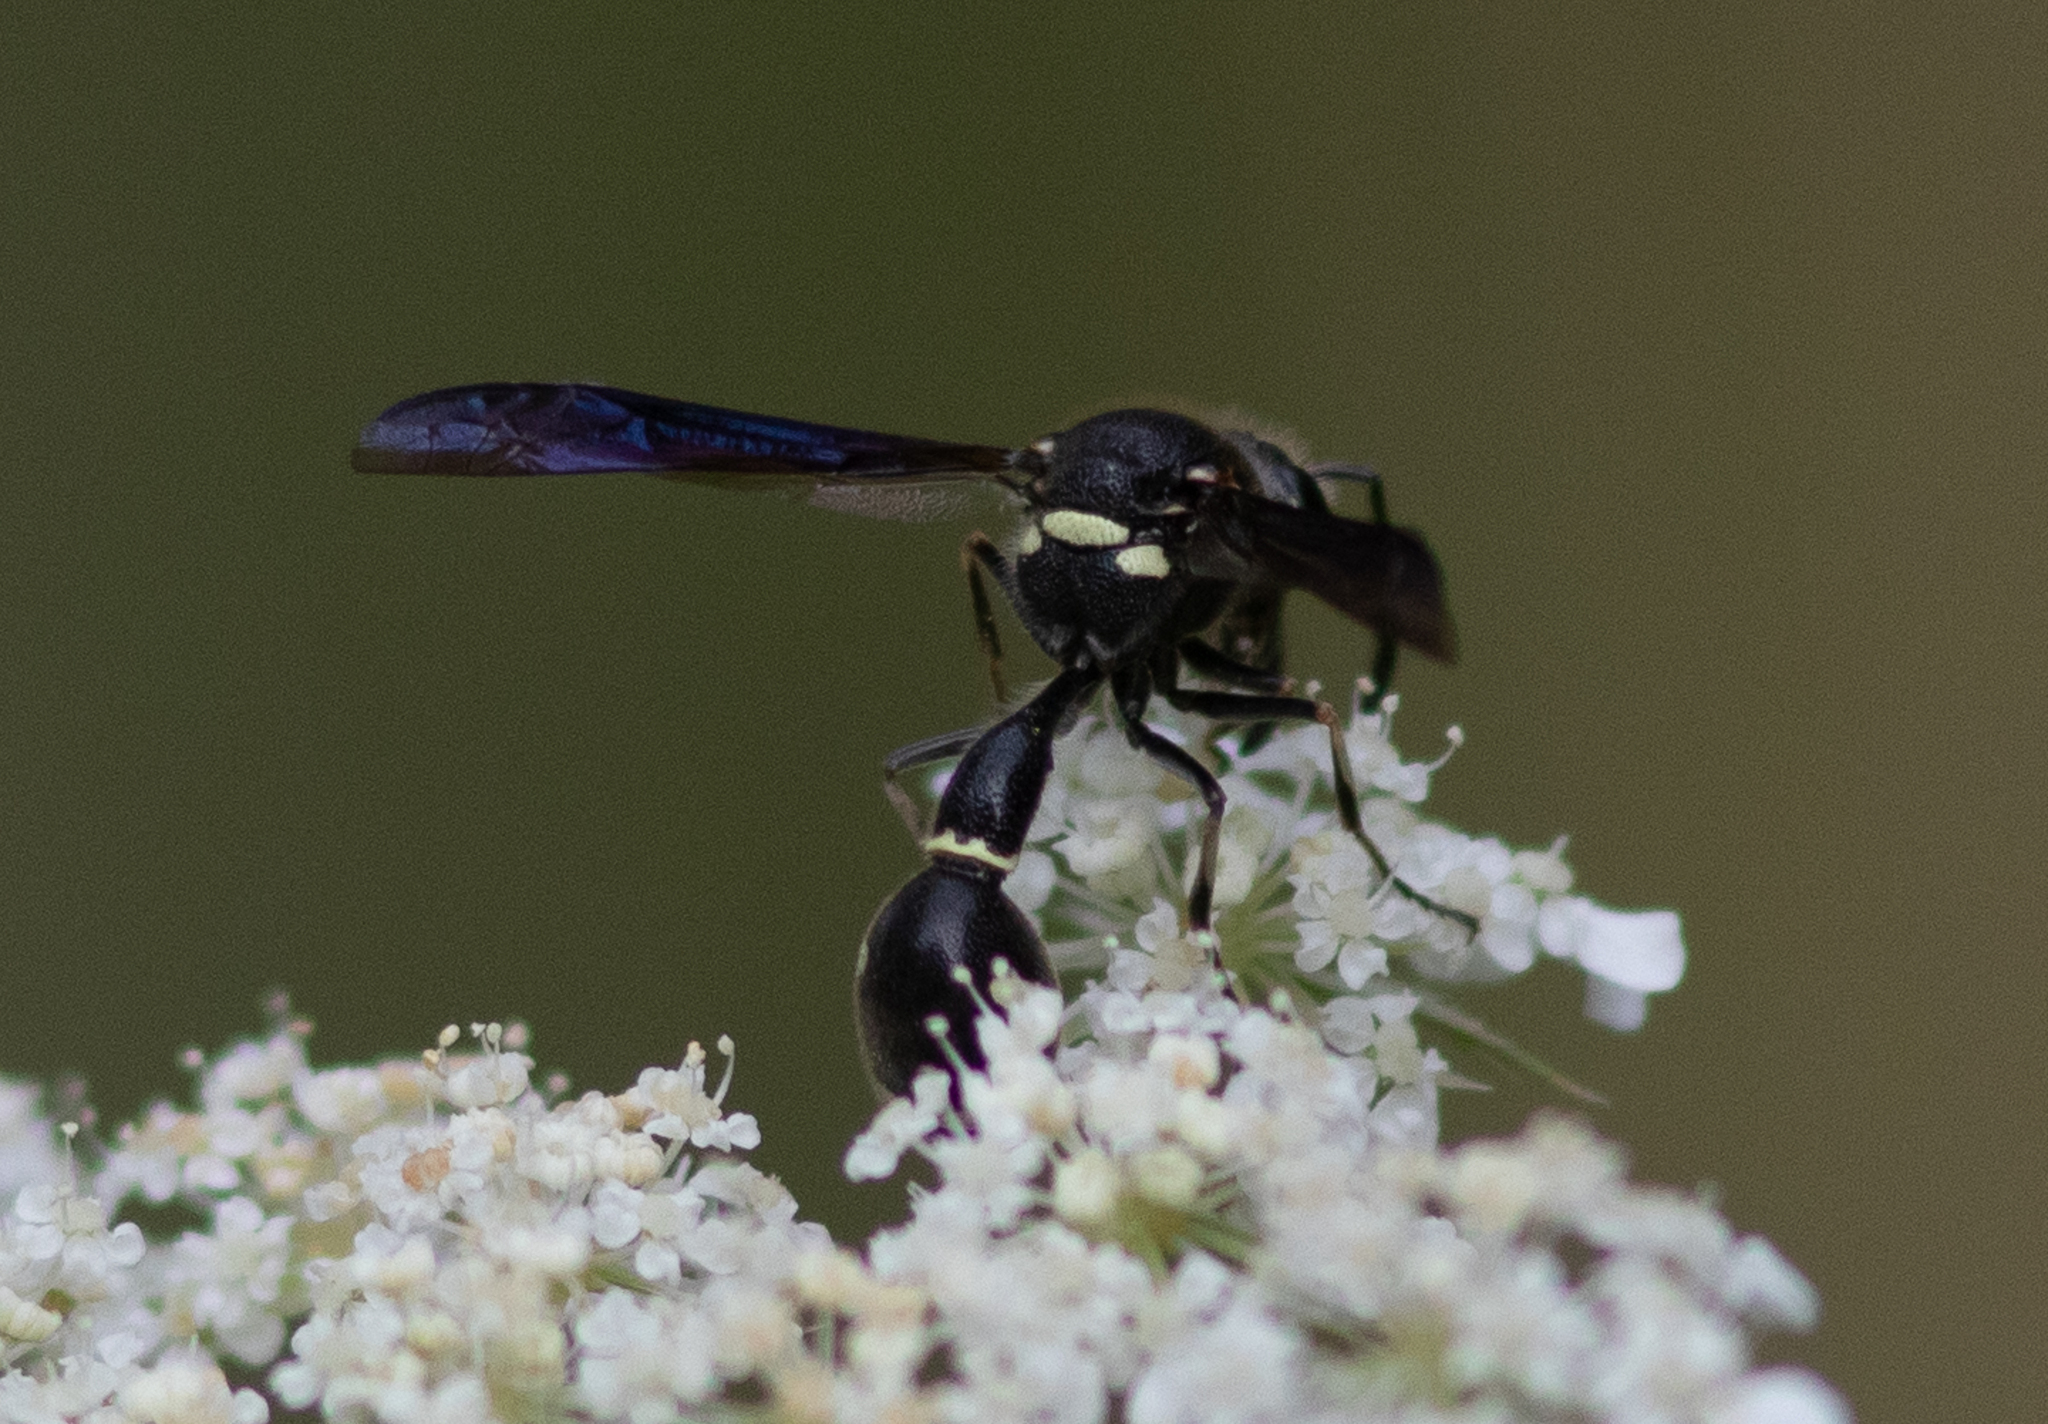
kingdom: Animalia
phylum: Arthropoda
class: Insecta
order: Hymenoptera
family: Vespidae
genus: Eumenes
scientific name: Eumenes fraternus
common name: Fraternal potter wasp
